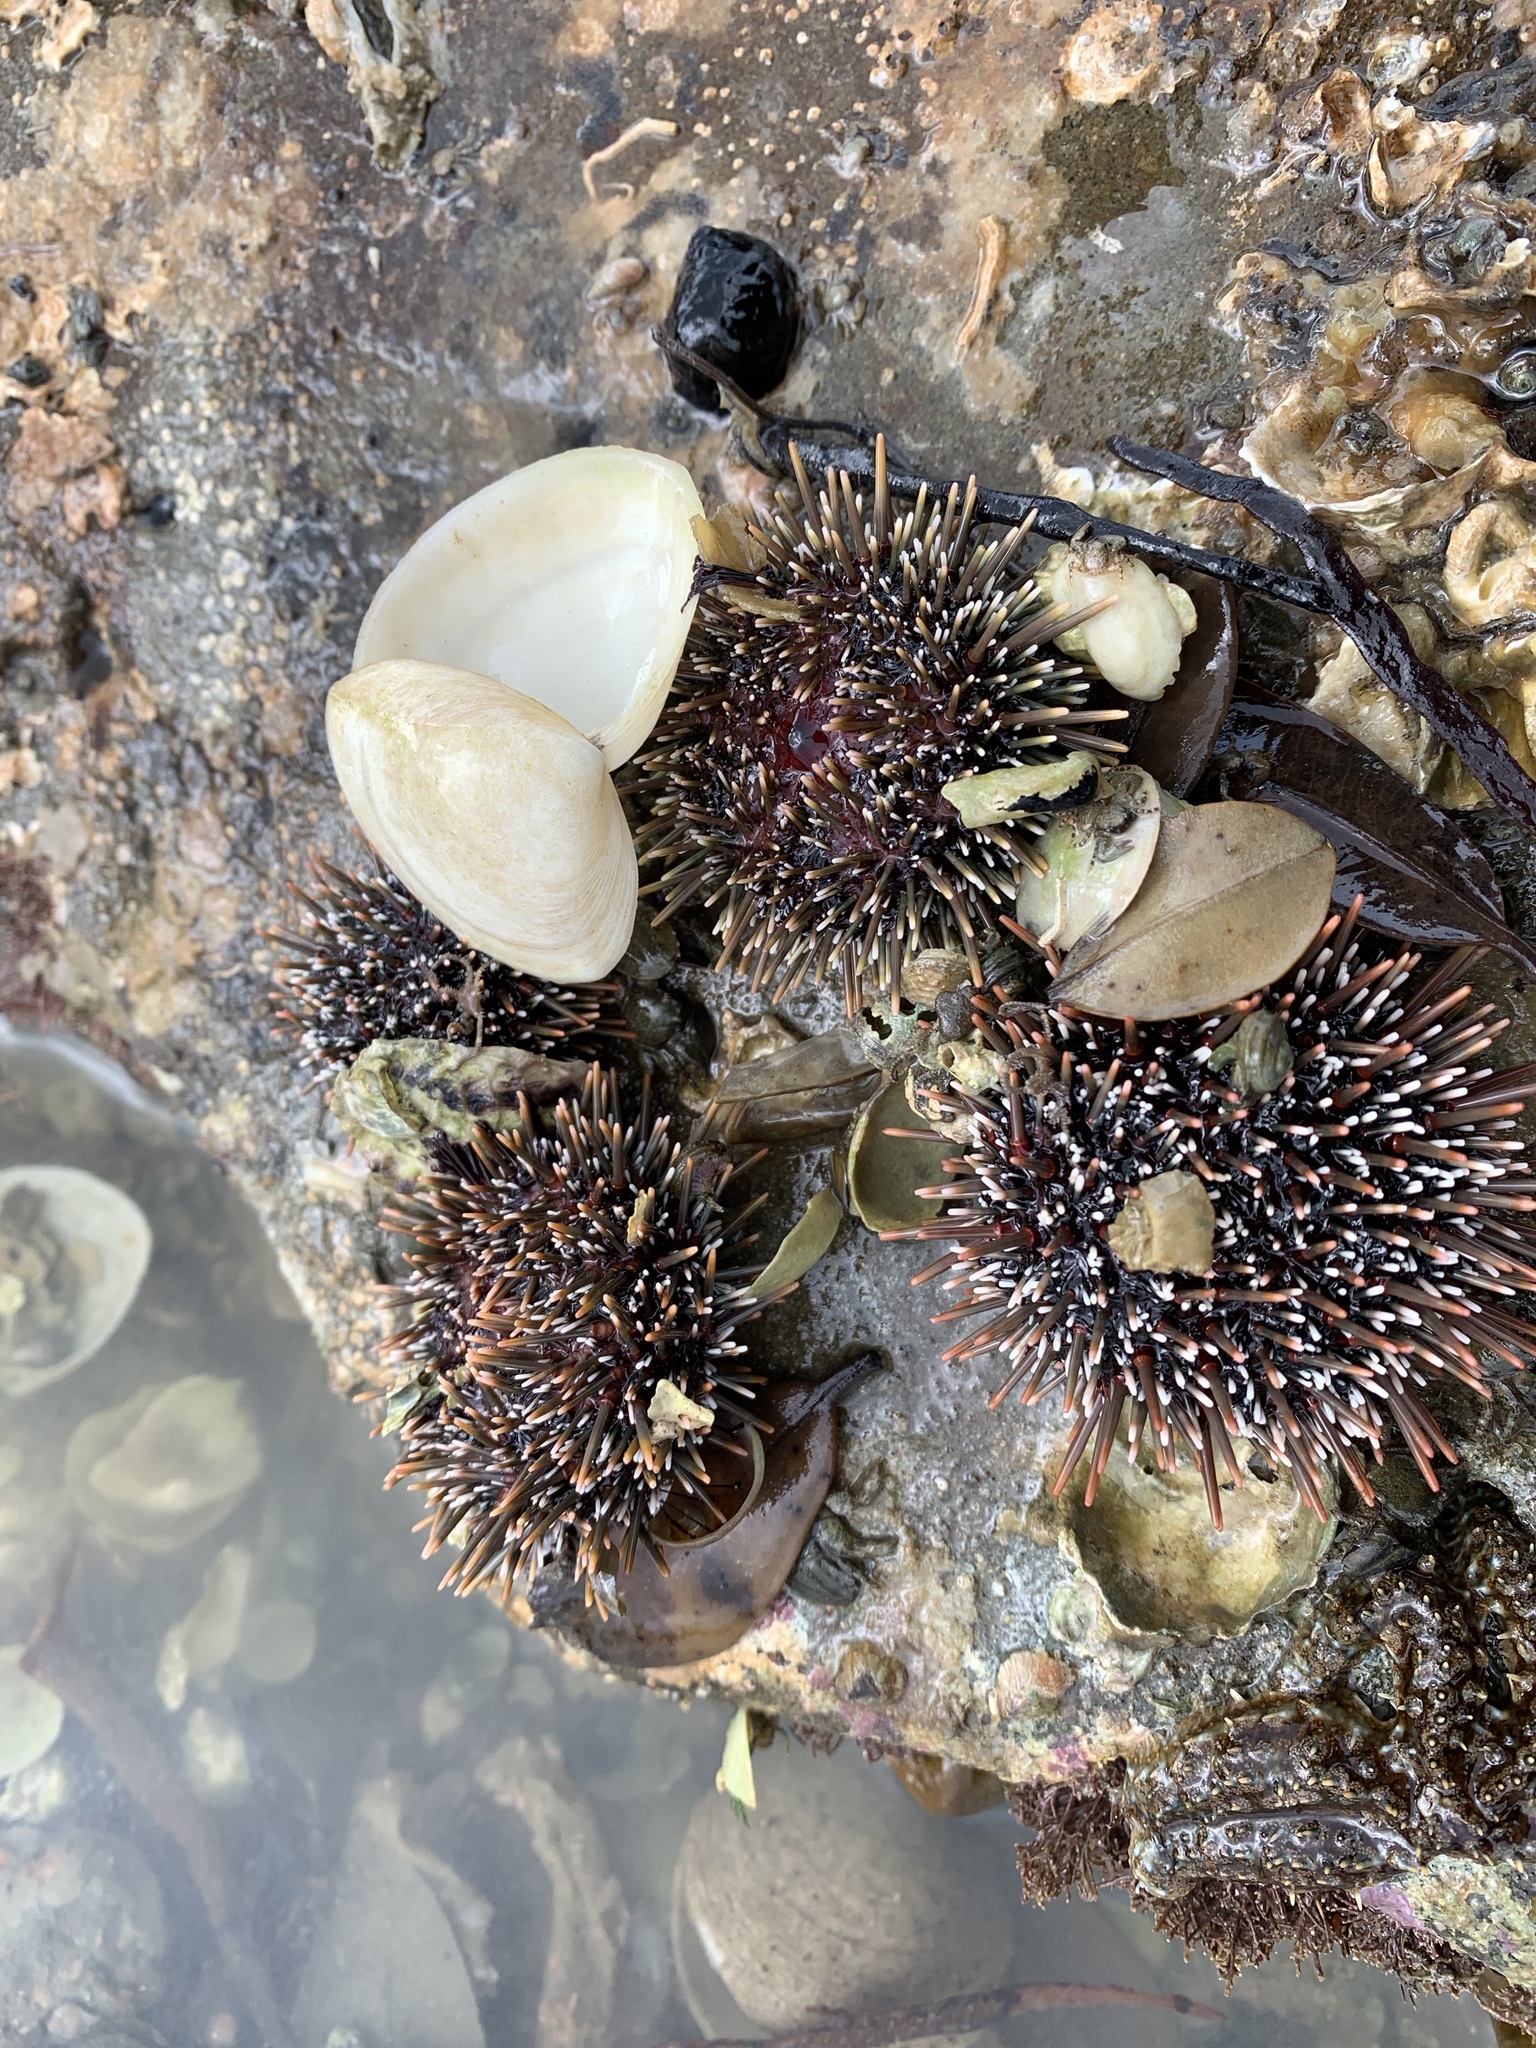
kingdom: Animalia
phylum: Echinodermata
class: Echinoidea
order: Camarodonta
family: Echinometridae
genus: Evechinus
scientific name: Evechinus chloroticus
